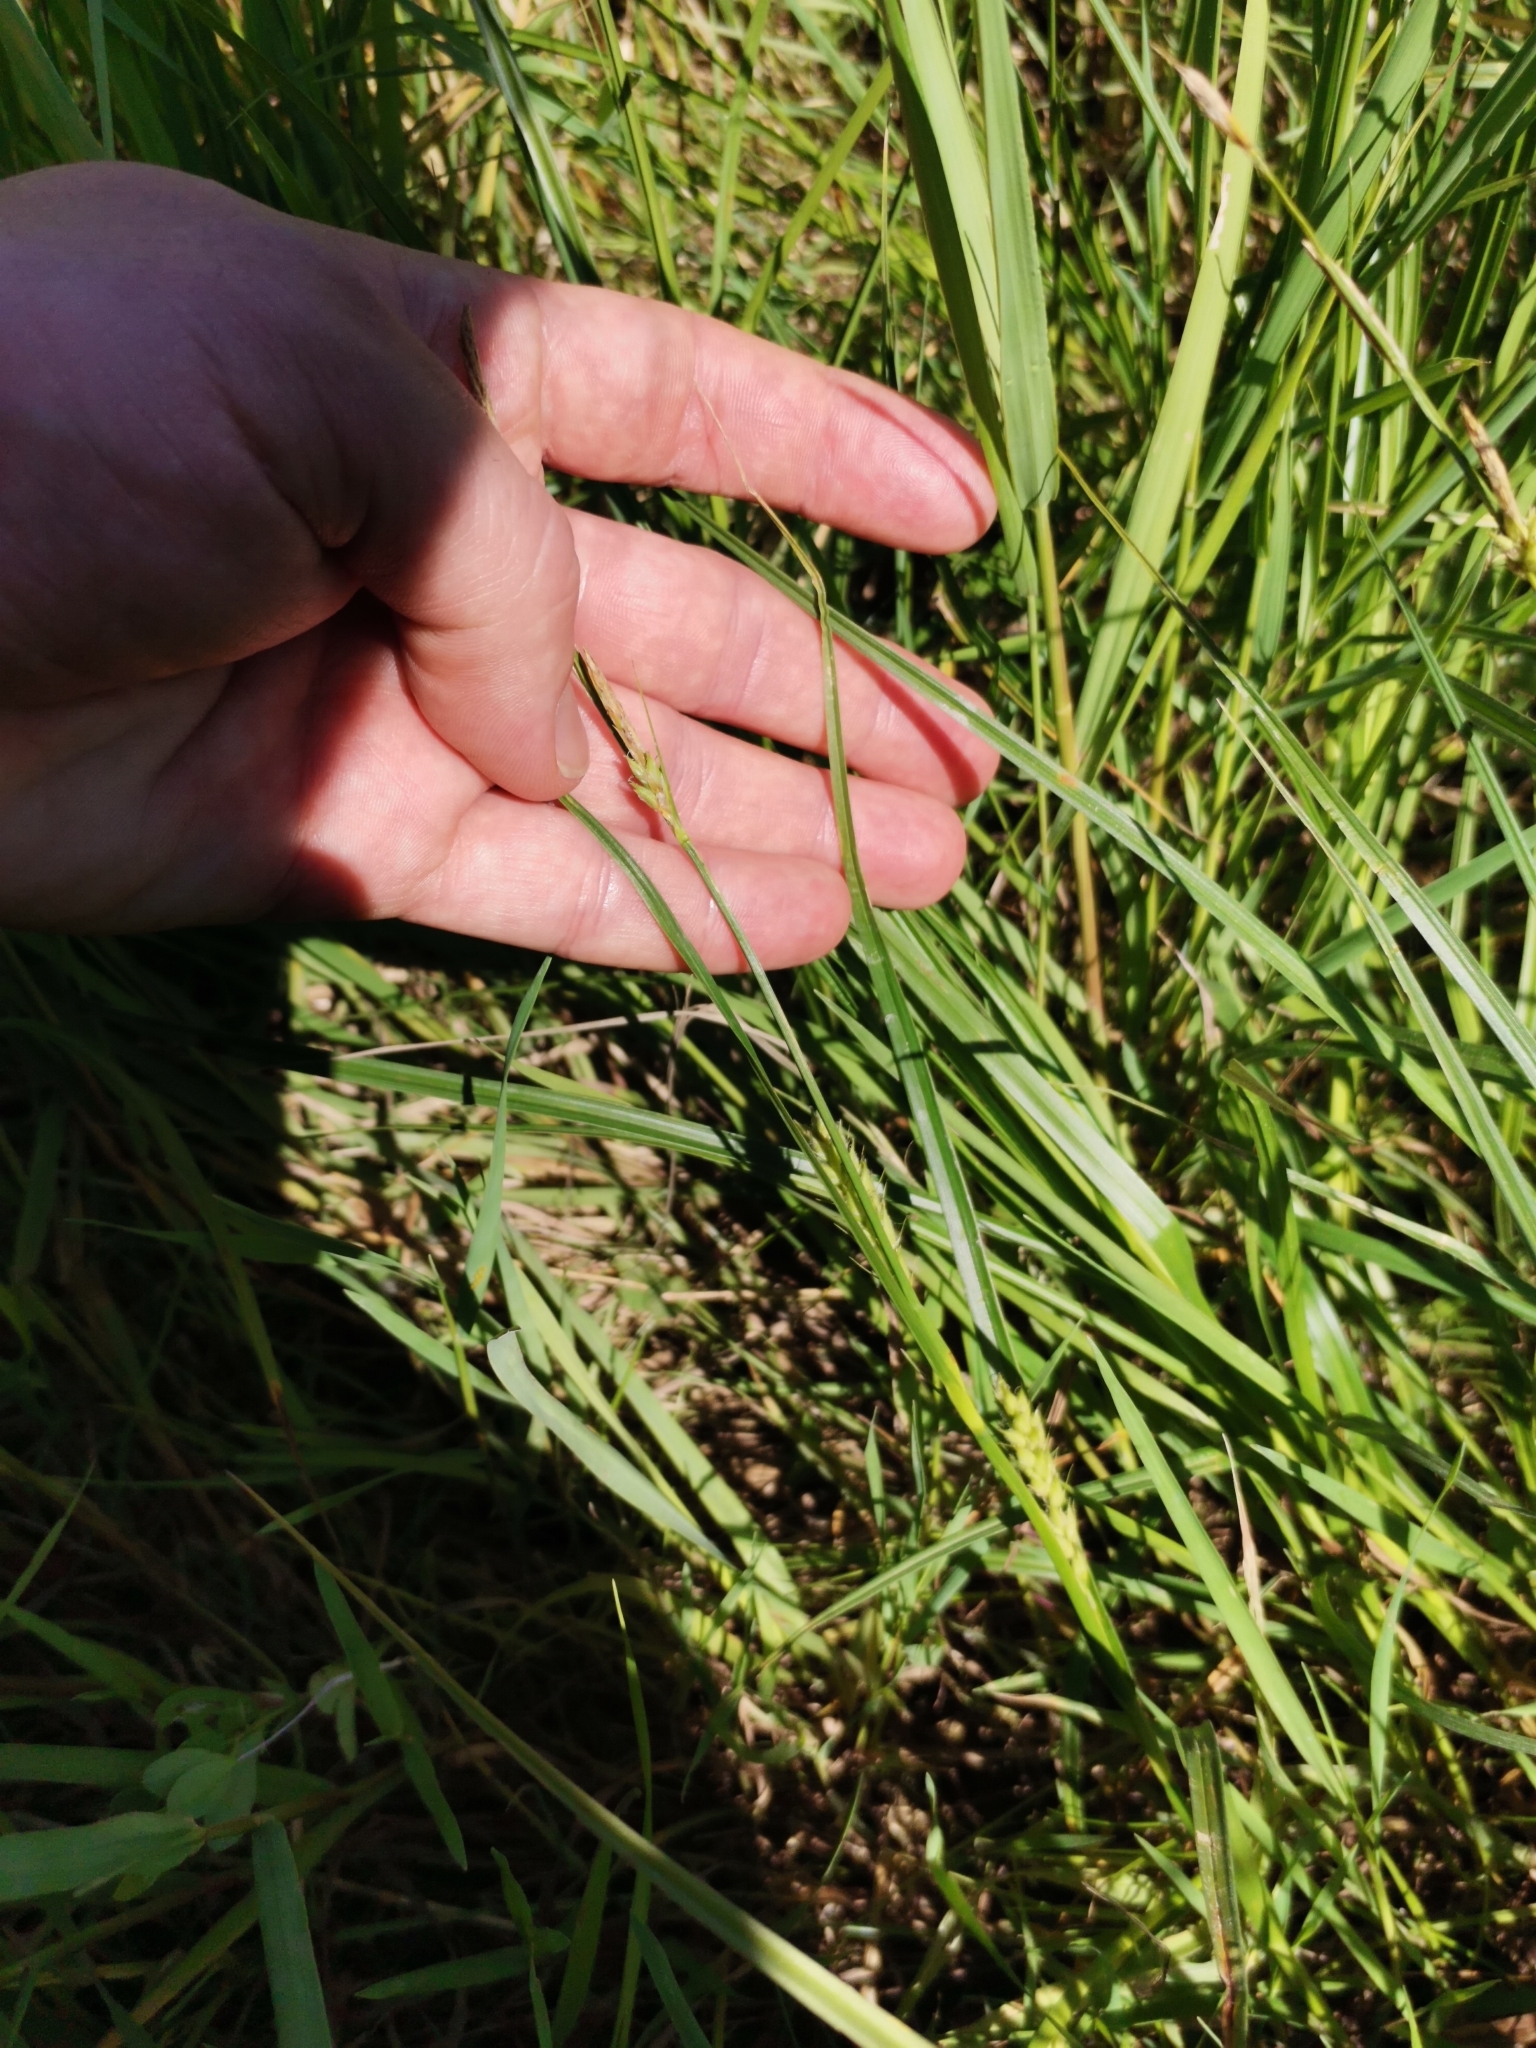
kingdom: Plantae
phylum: Tracheophyta
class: Liliopsida
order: Poales
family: Cyperaceae
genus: Carex
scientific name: Carex hirta
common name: Hairy sedge
